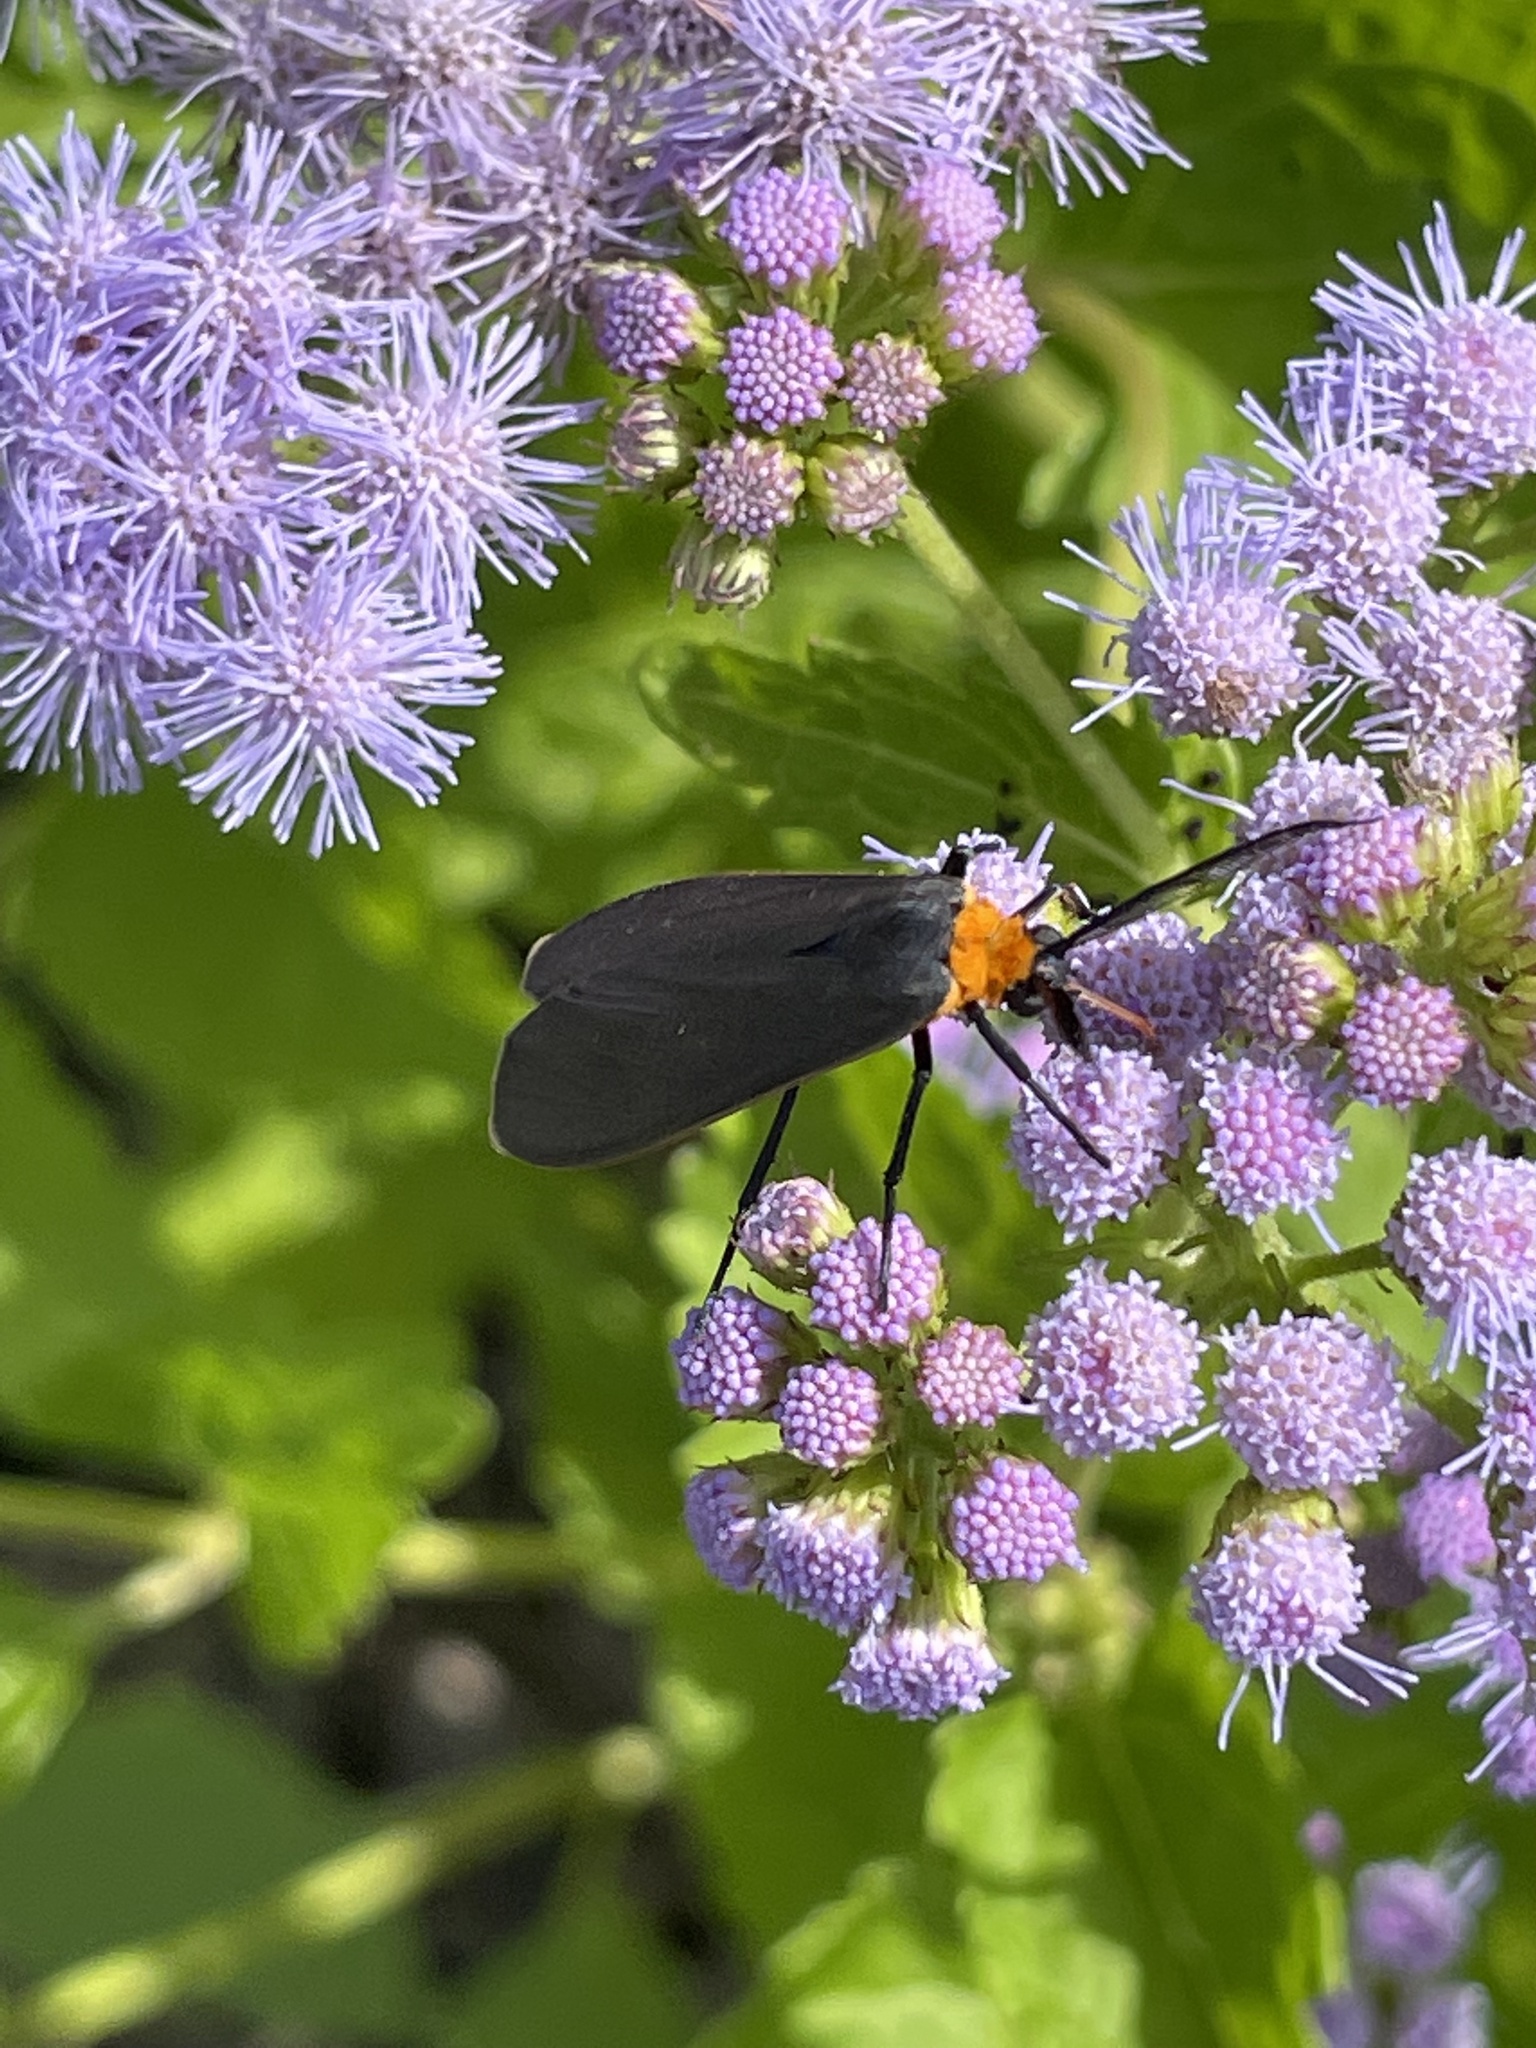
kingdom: Animalia
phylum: Arthropoda
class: Insecta
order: Lepidoptera
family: Erebidae
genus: Cisseps
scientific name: Cisseps fulvicollis
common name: Yellow-collared scape moth
